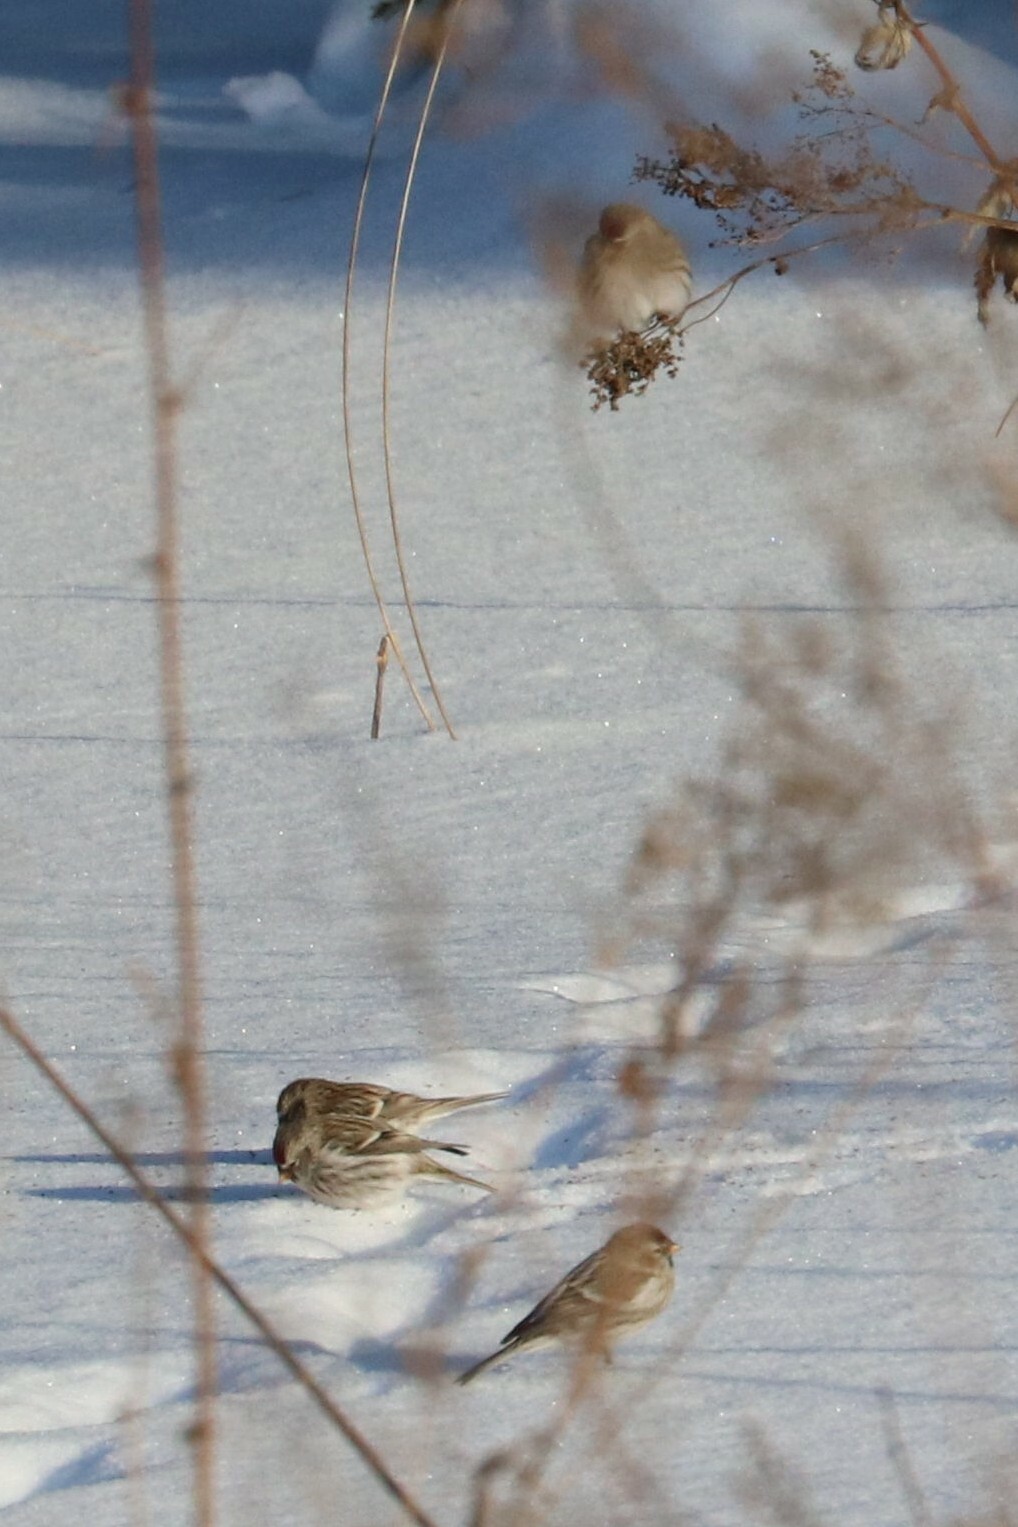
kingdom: Animalia
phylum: Chordata
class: Aves
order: Passeriformes
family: Fringillidae
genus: Acanthis
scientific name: Acanthis flammea
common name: Common redpoll
